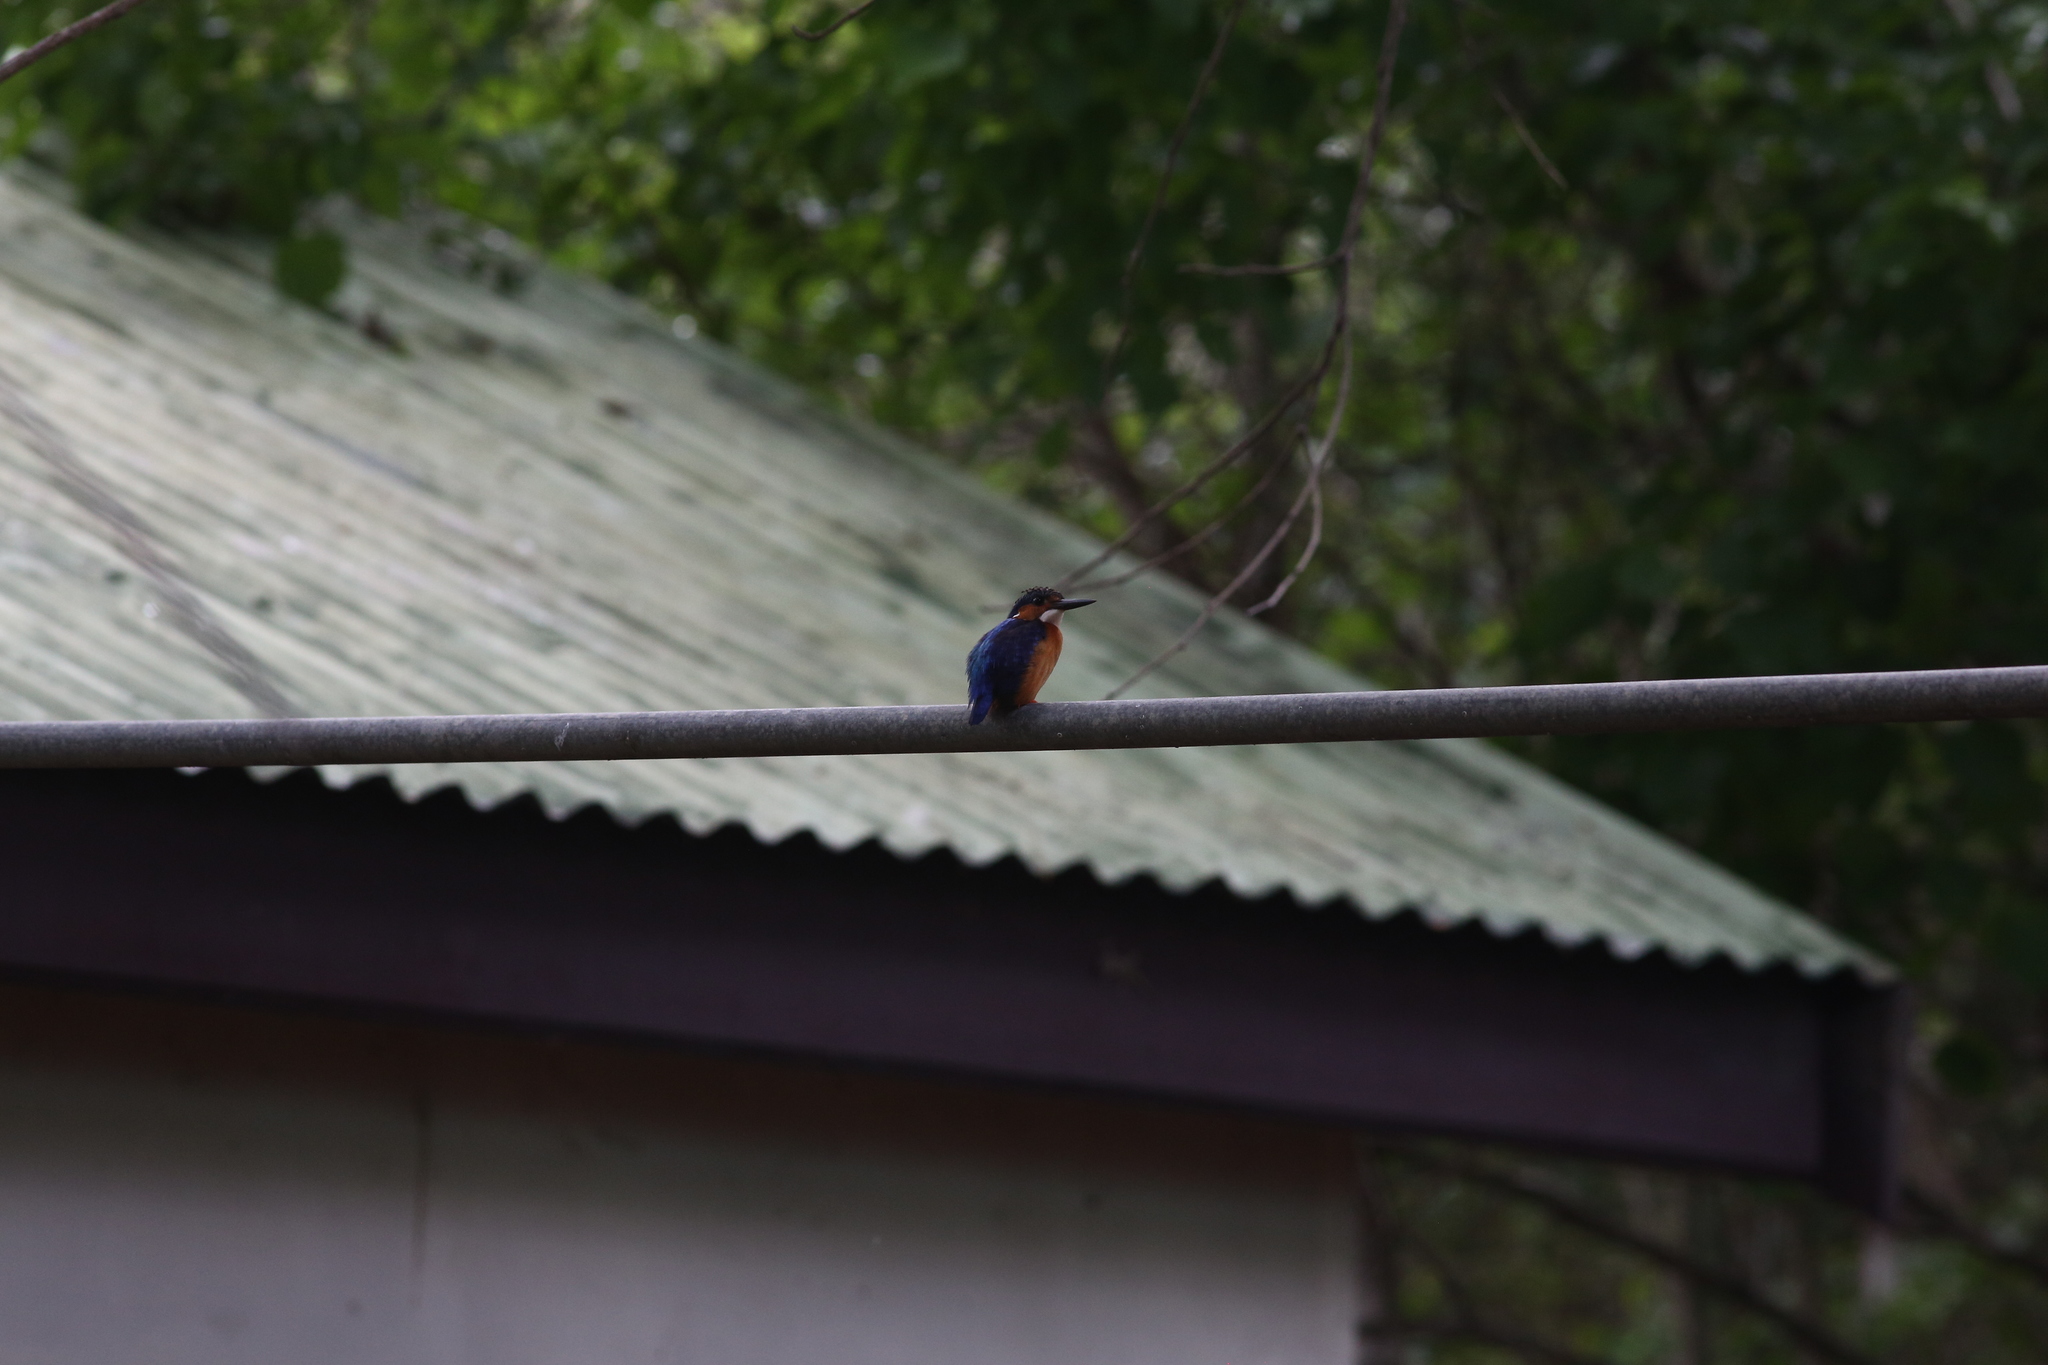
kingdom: Animalia
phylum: Chordata
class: Aves
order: Coraciiformes
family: Alcedinidae
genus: Corythornis
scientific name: Corythornis vintsioides
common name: Malagasy kingfisher
